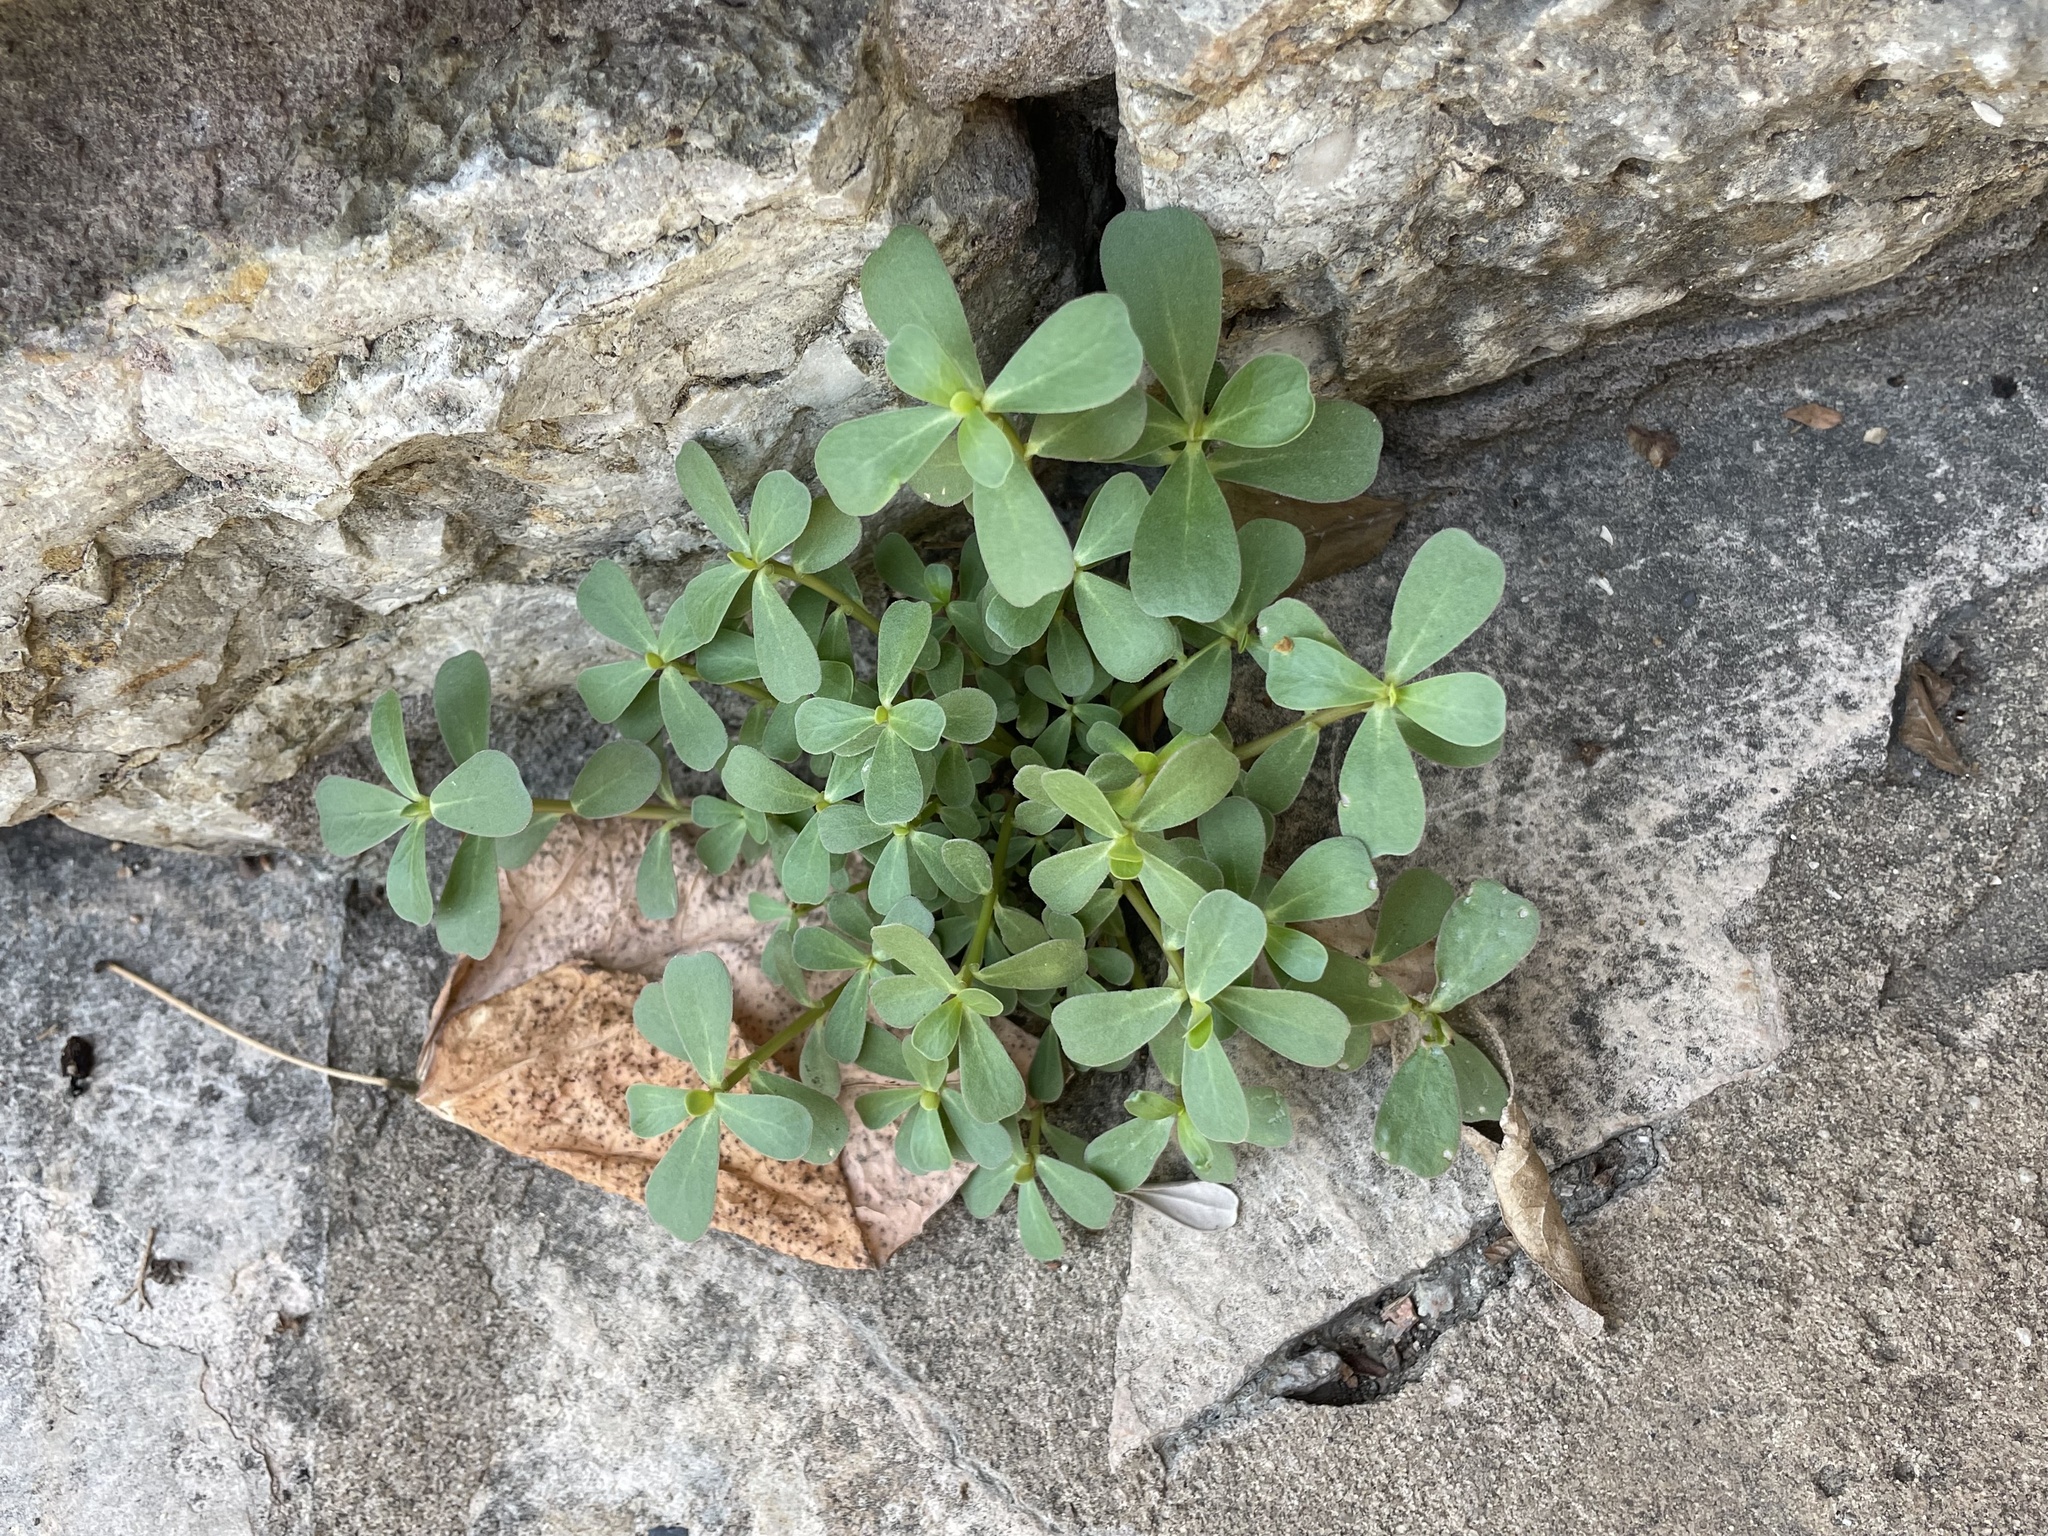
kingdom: Plantae
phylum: Tracheophyta
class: Magnoliopsida
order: Caryophyllales
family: Portulacaceae
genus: Portulaca
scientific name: Portulaca oleracea
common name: Common purslane
